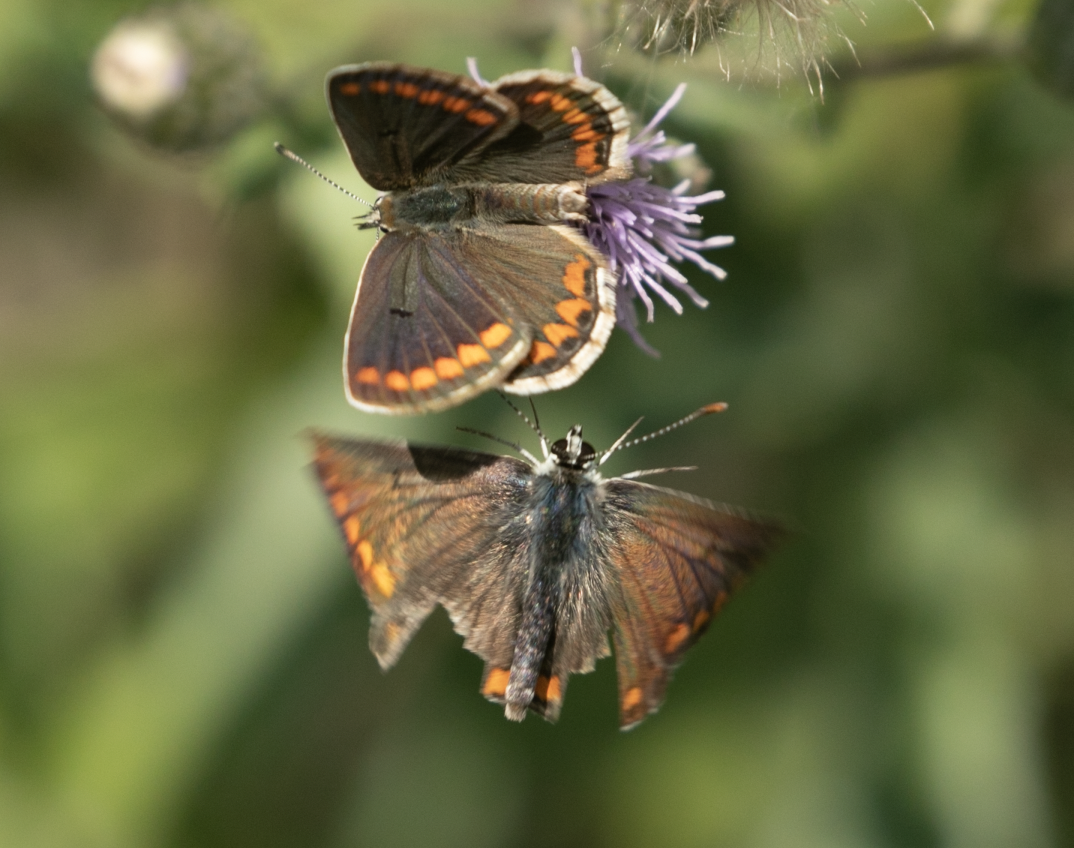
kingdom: Animalia
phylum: Arthropoda
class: Insecta
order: Lepidoptera
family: Lycaenidae
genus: Aricia
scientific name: Aricia agestis
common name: Brown argus
